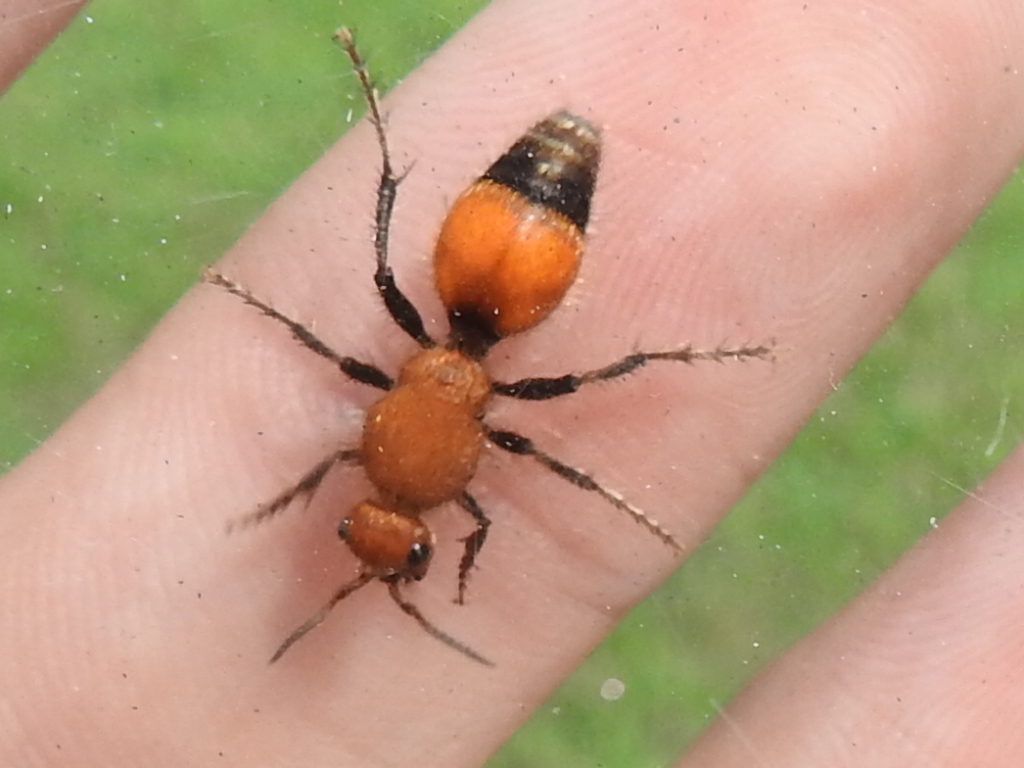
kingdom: Animalia
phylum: Arthropoda
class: Insecta
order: Hymenoptera
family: Mutillidae
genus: Dasymutilla
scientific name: Dasymutilla
